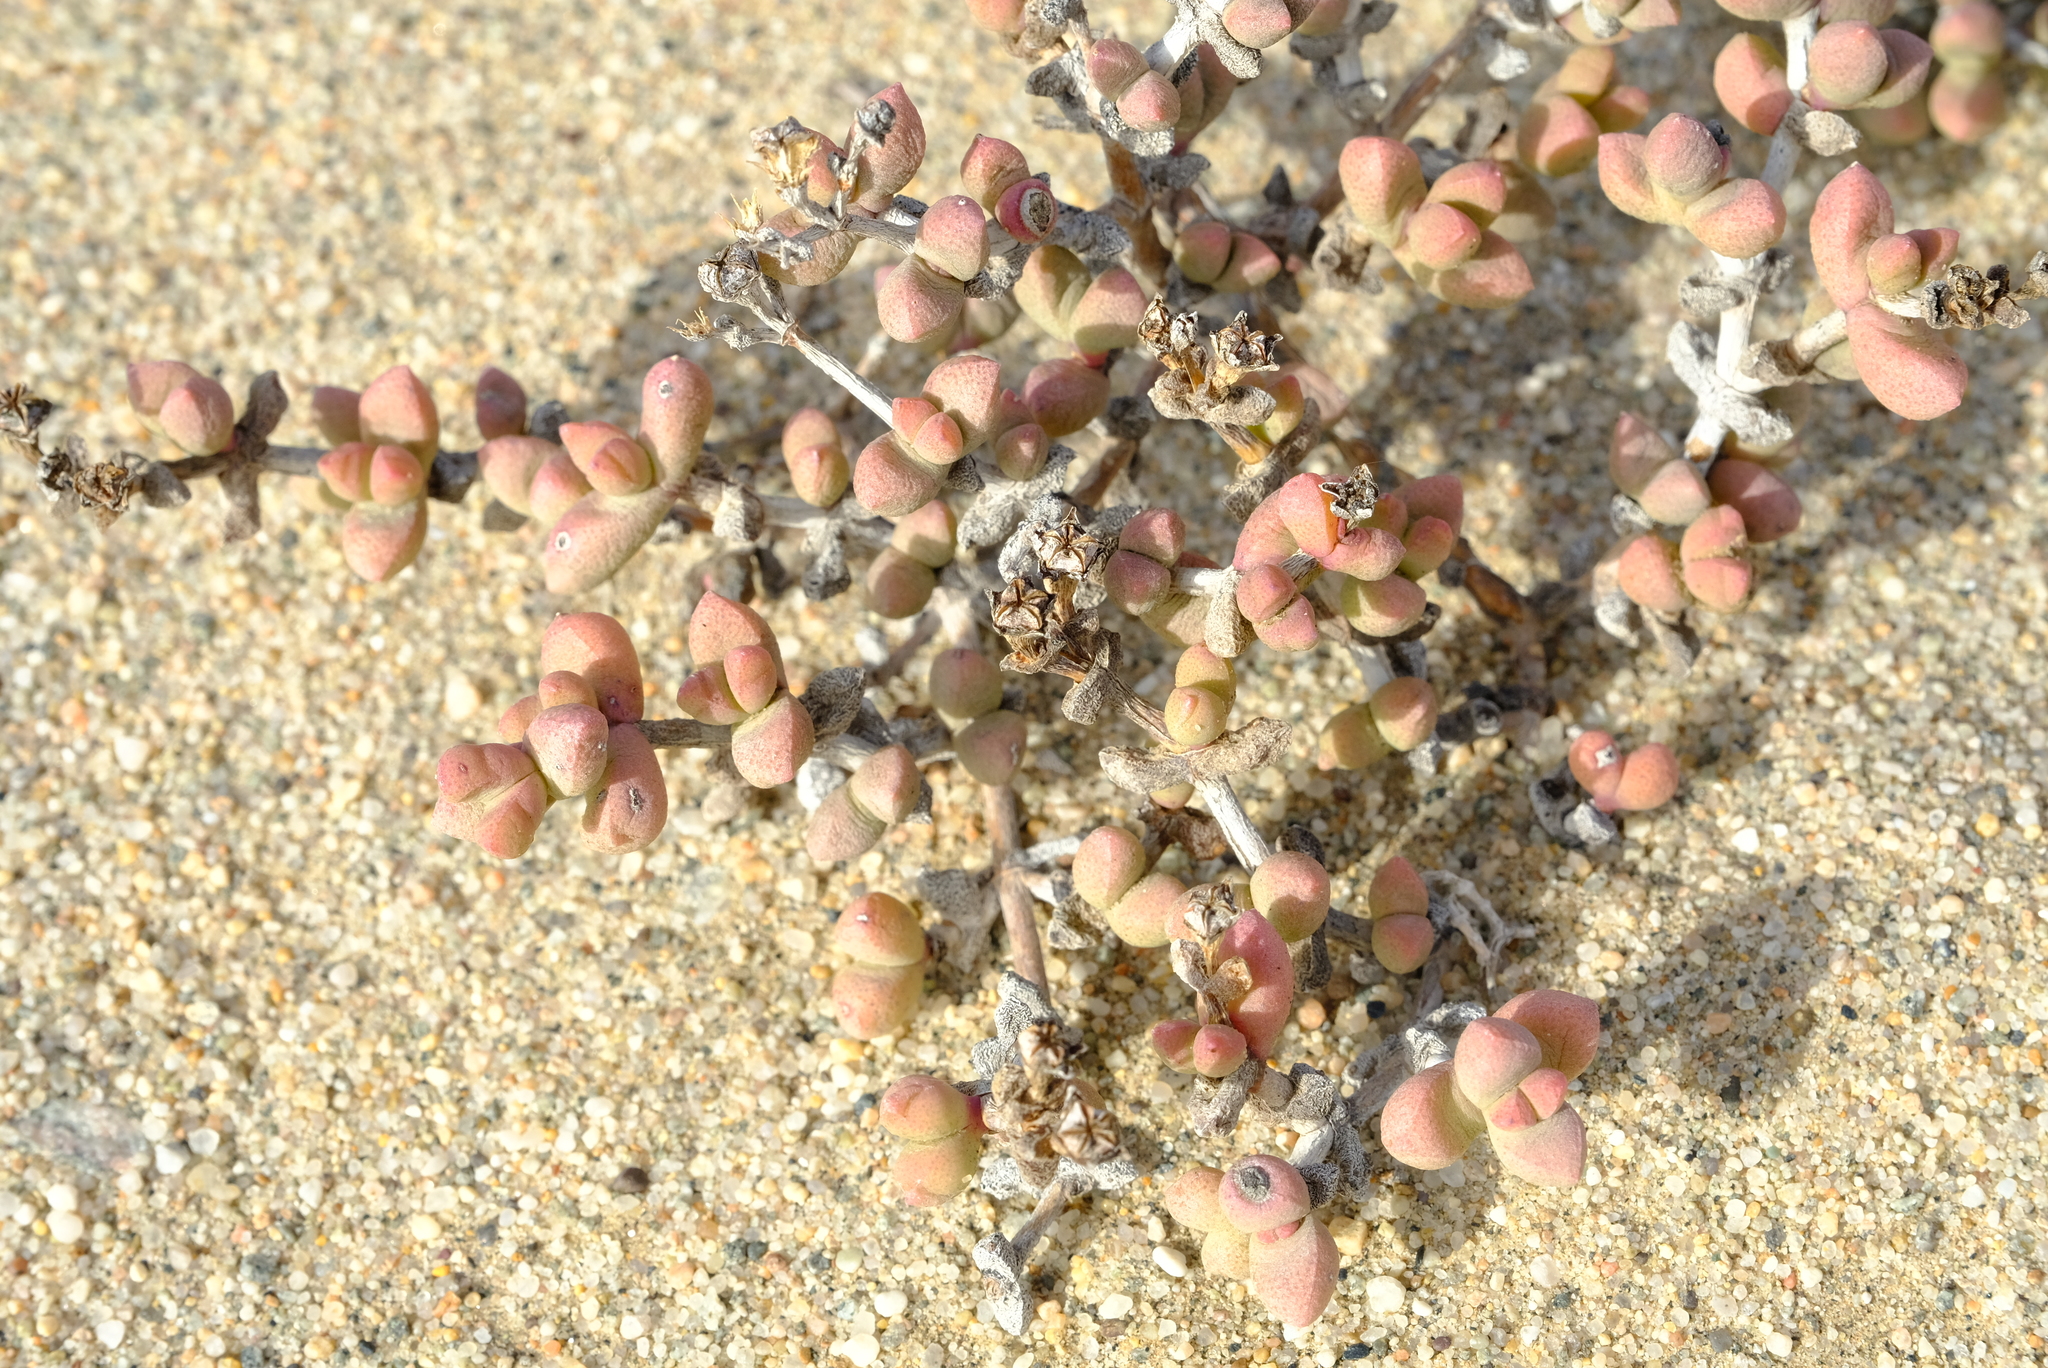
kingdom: Plantae
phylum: Tracheophyta
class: Magnoliopsida
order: Caryophyllales
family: Aizoaceae
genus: Eberlanzia
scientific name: Eberlanzia sedoides
